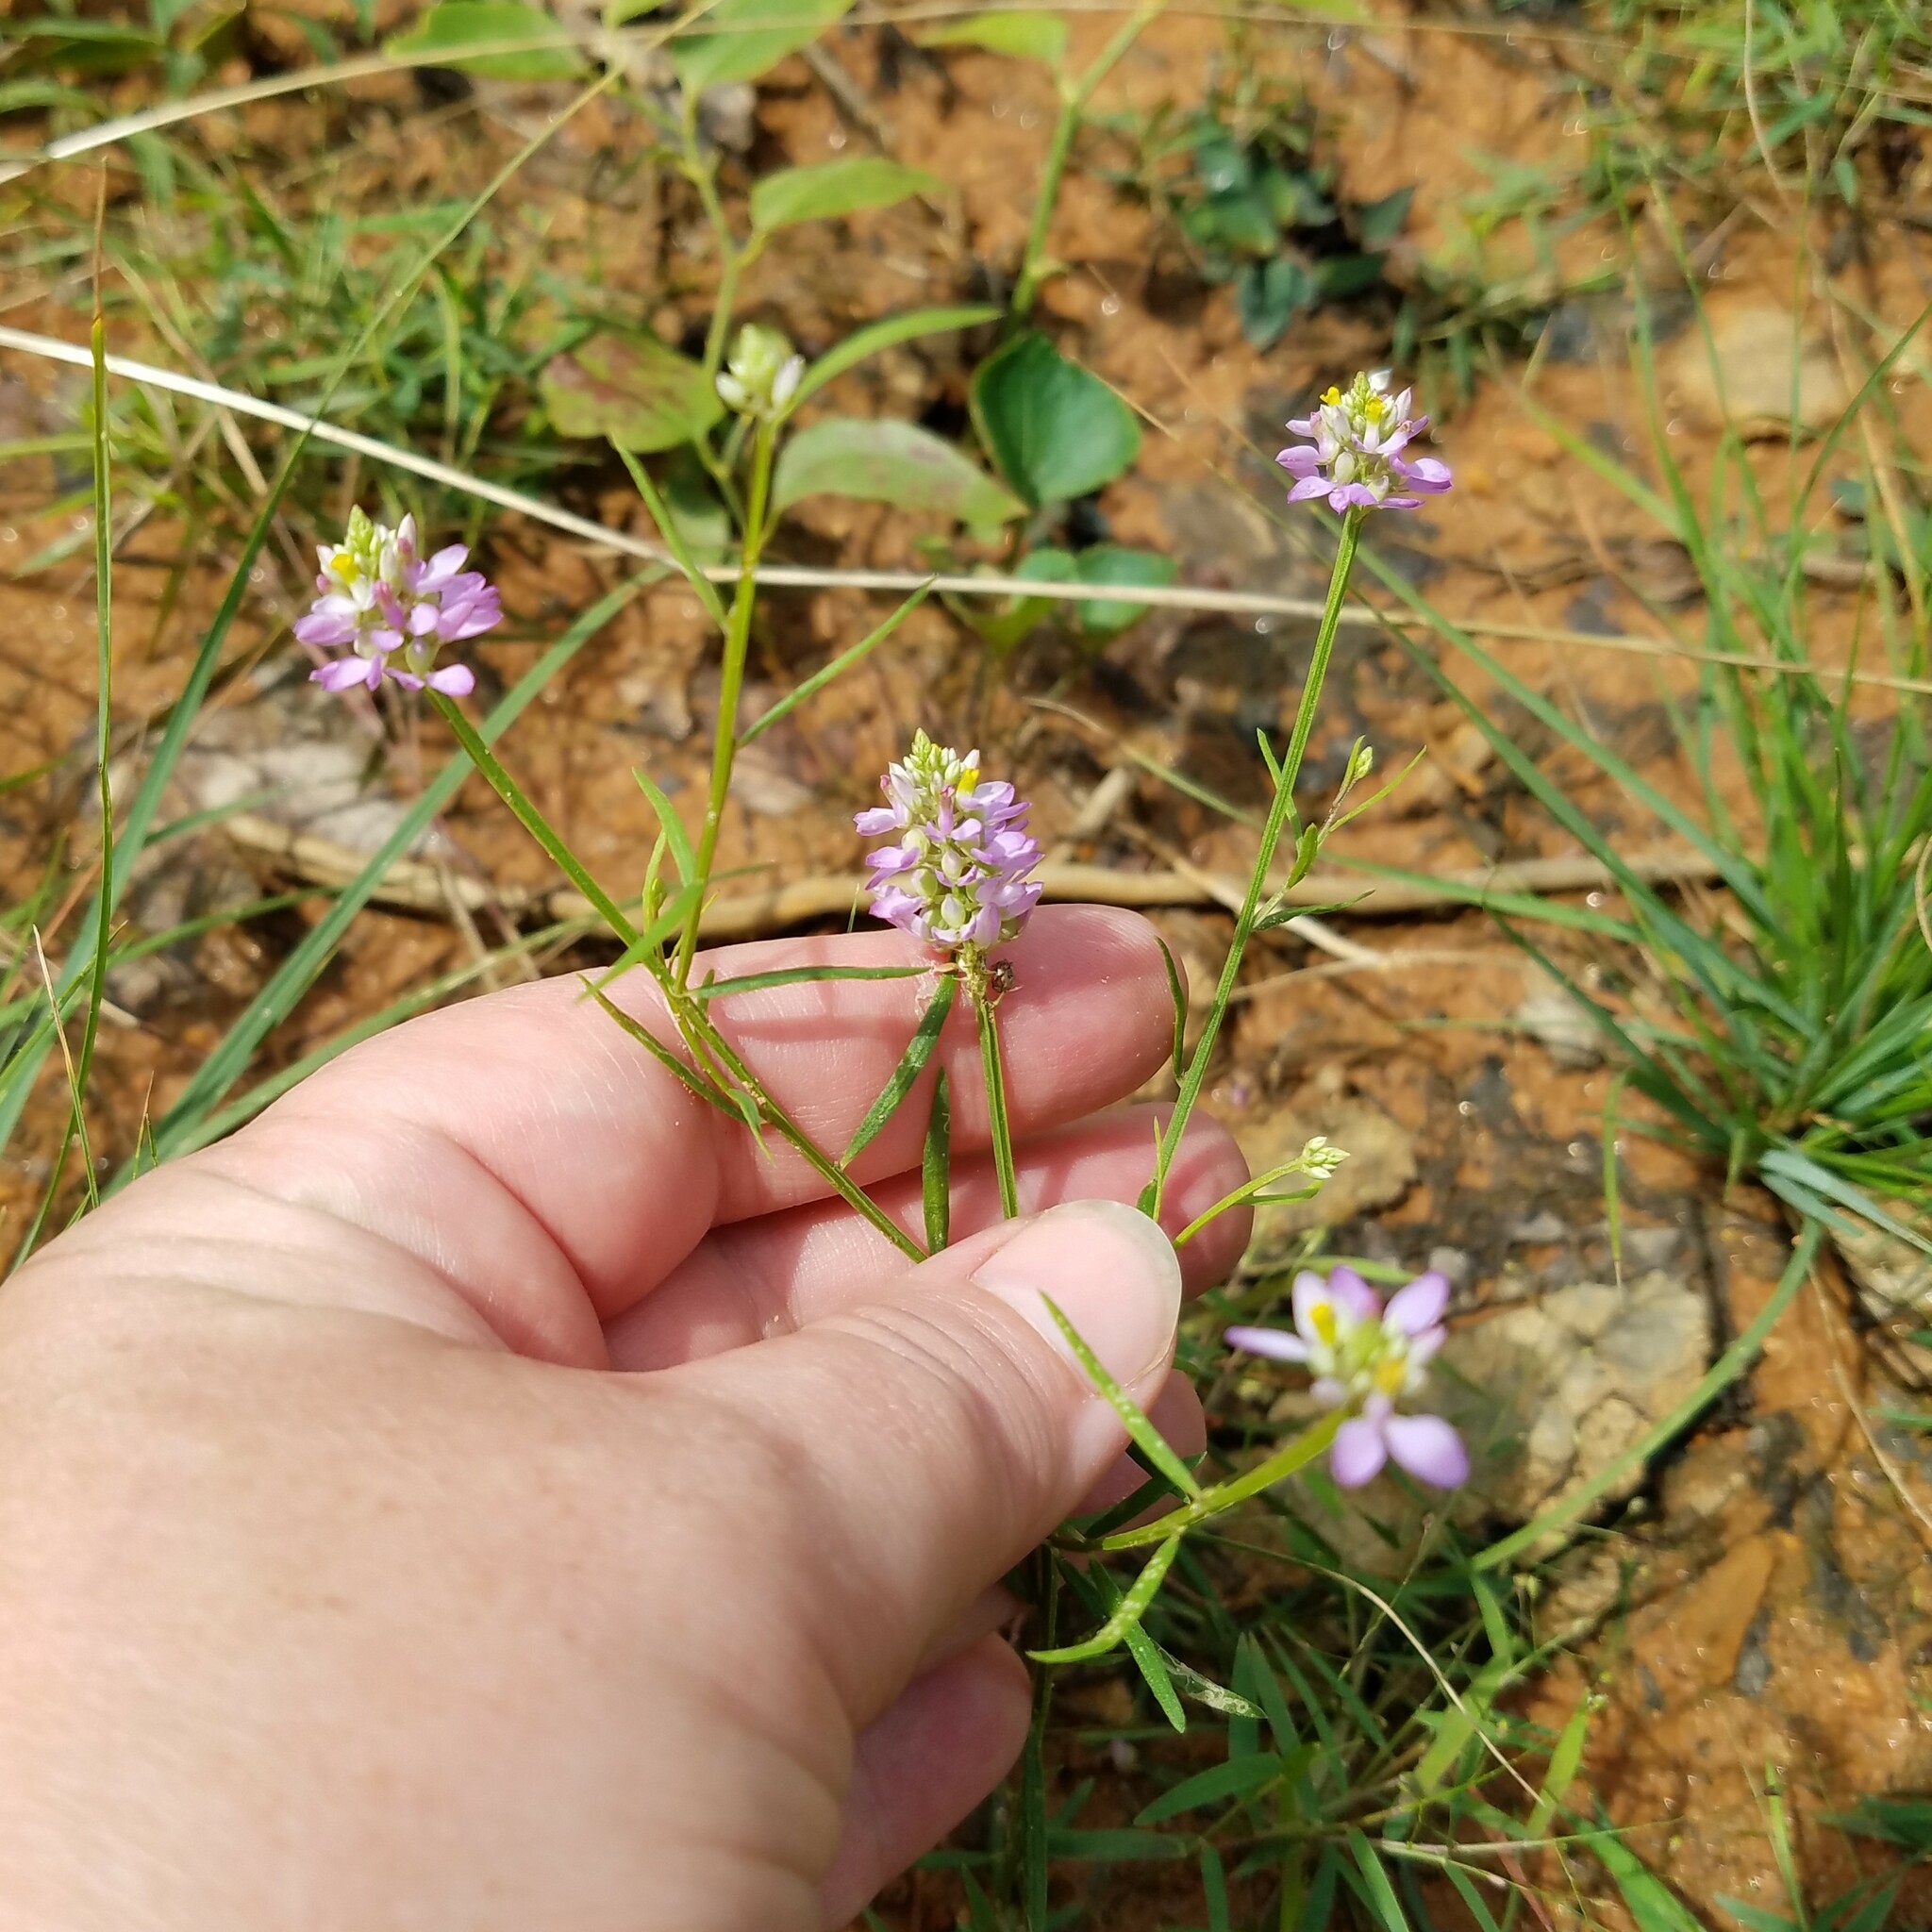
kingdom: Plantae
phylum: Tracheophyta
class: Magnoliopsida
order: Fabales
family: Polygalaceae
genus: Polygala
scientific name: Polygala curtissii
